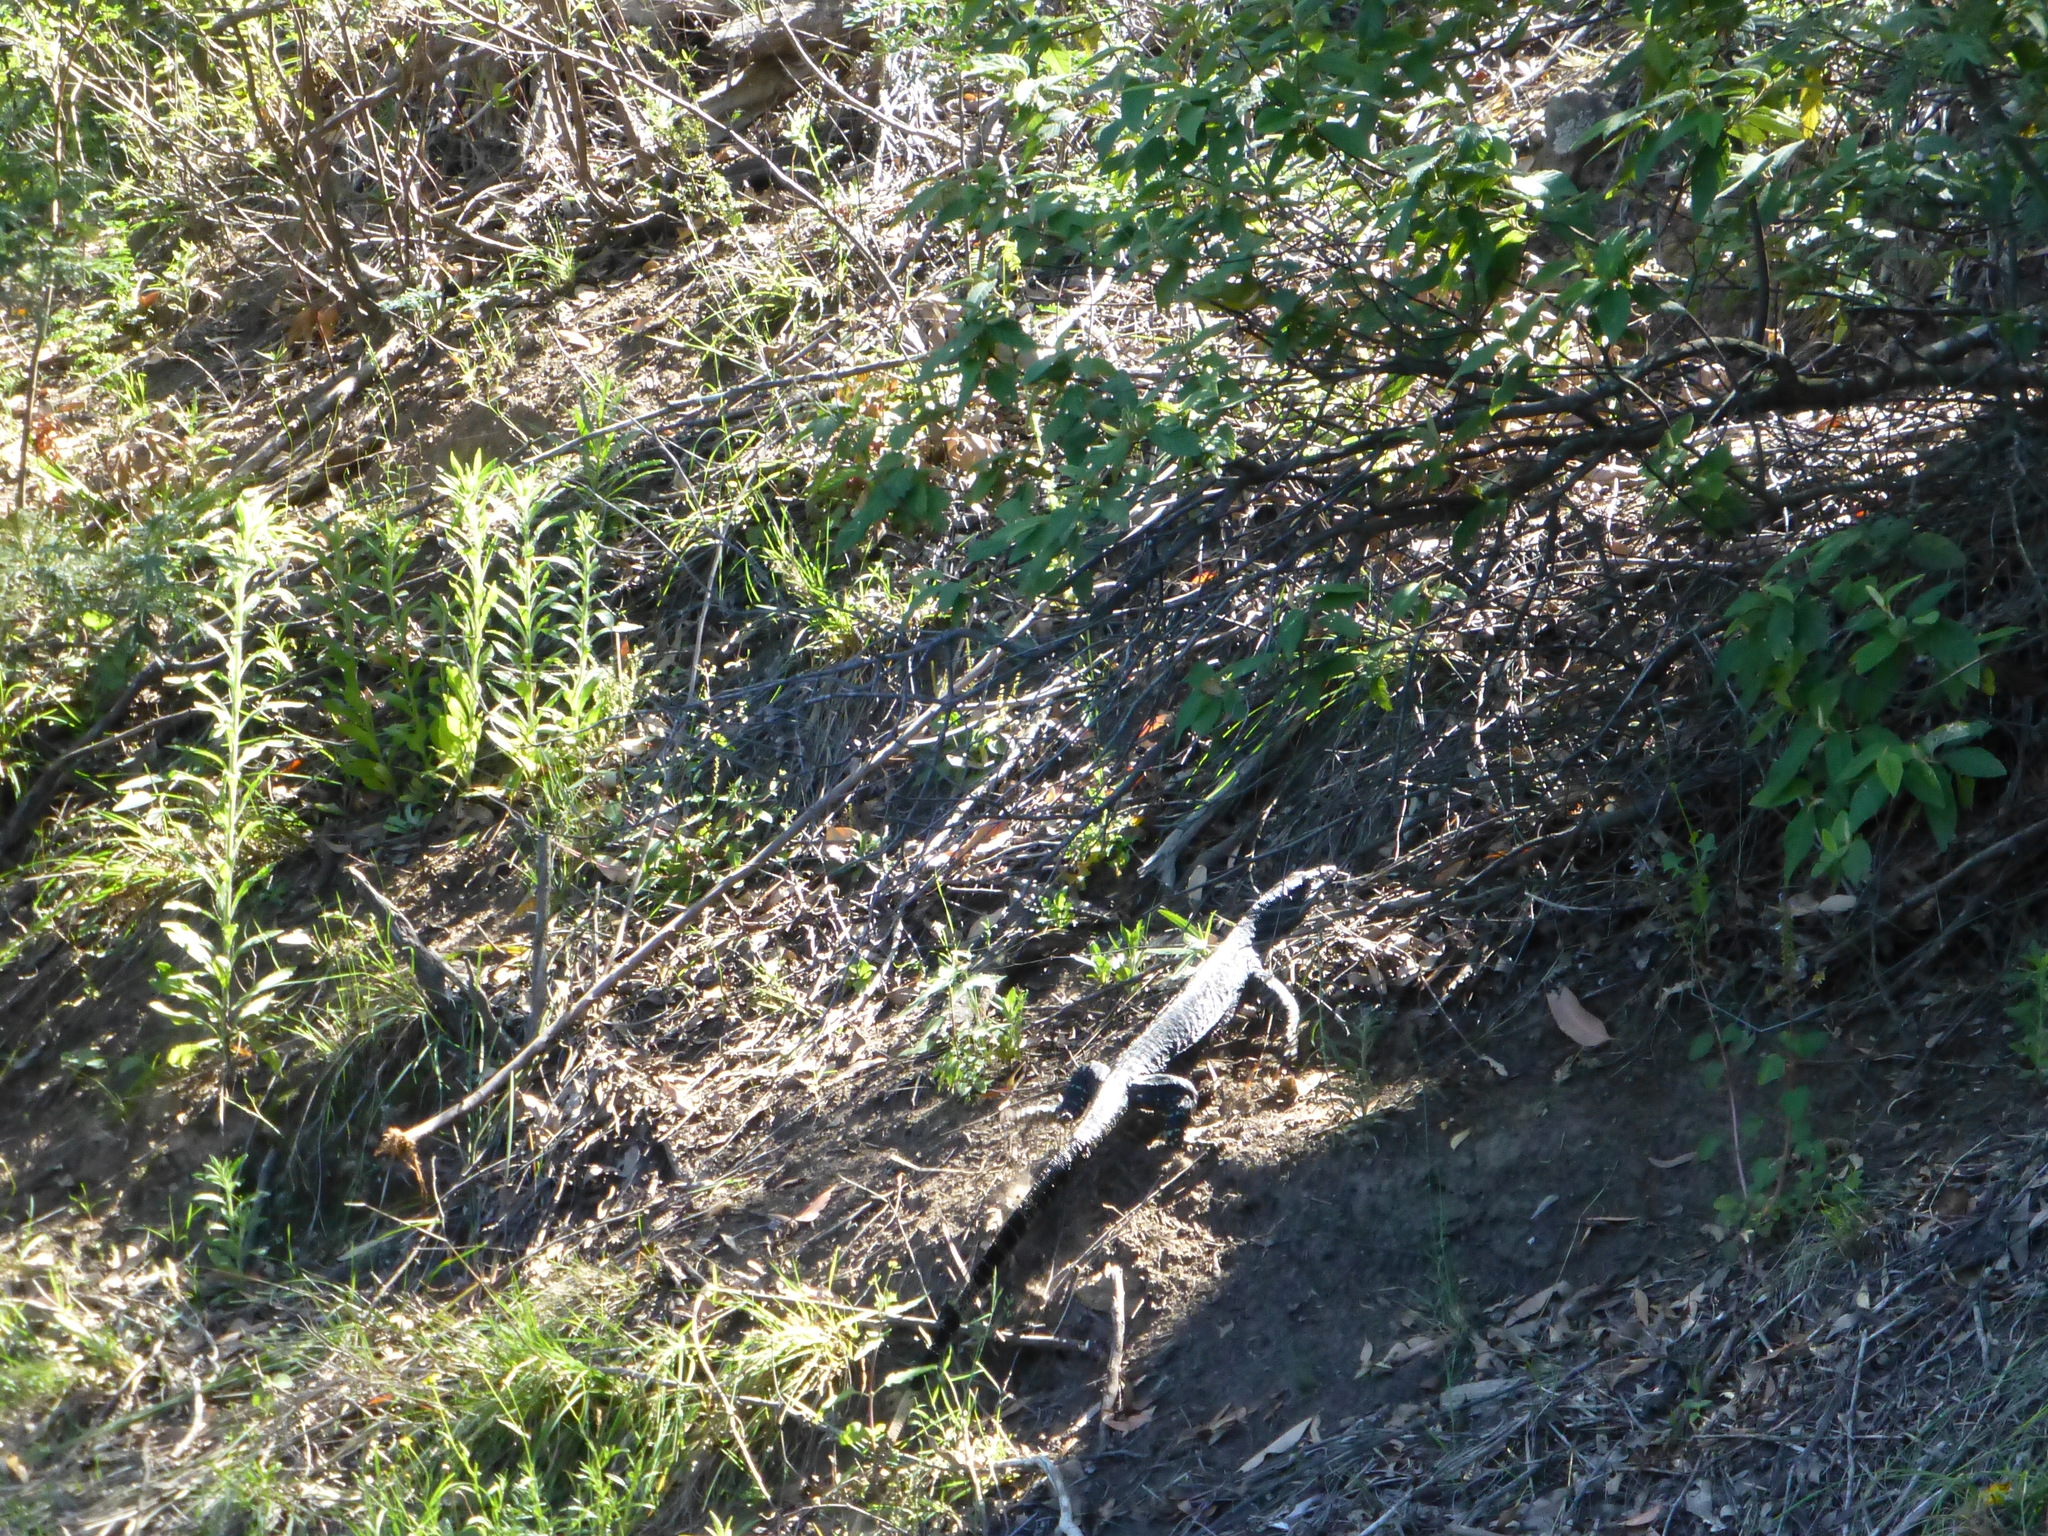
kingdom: Animalia
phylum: Chordata
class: Squamata
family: Varanidae
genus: Varanus
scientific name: Varanus varius
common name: Lace monitor
